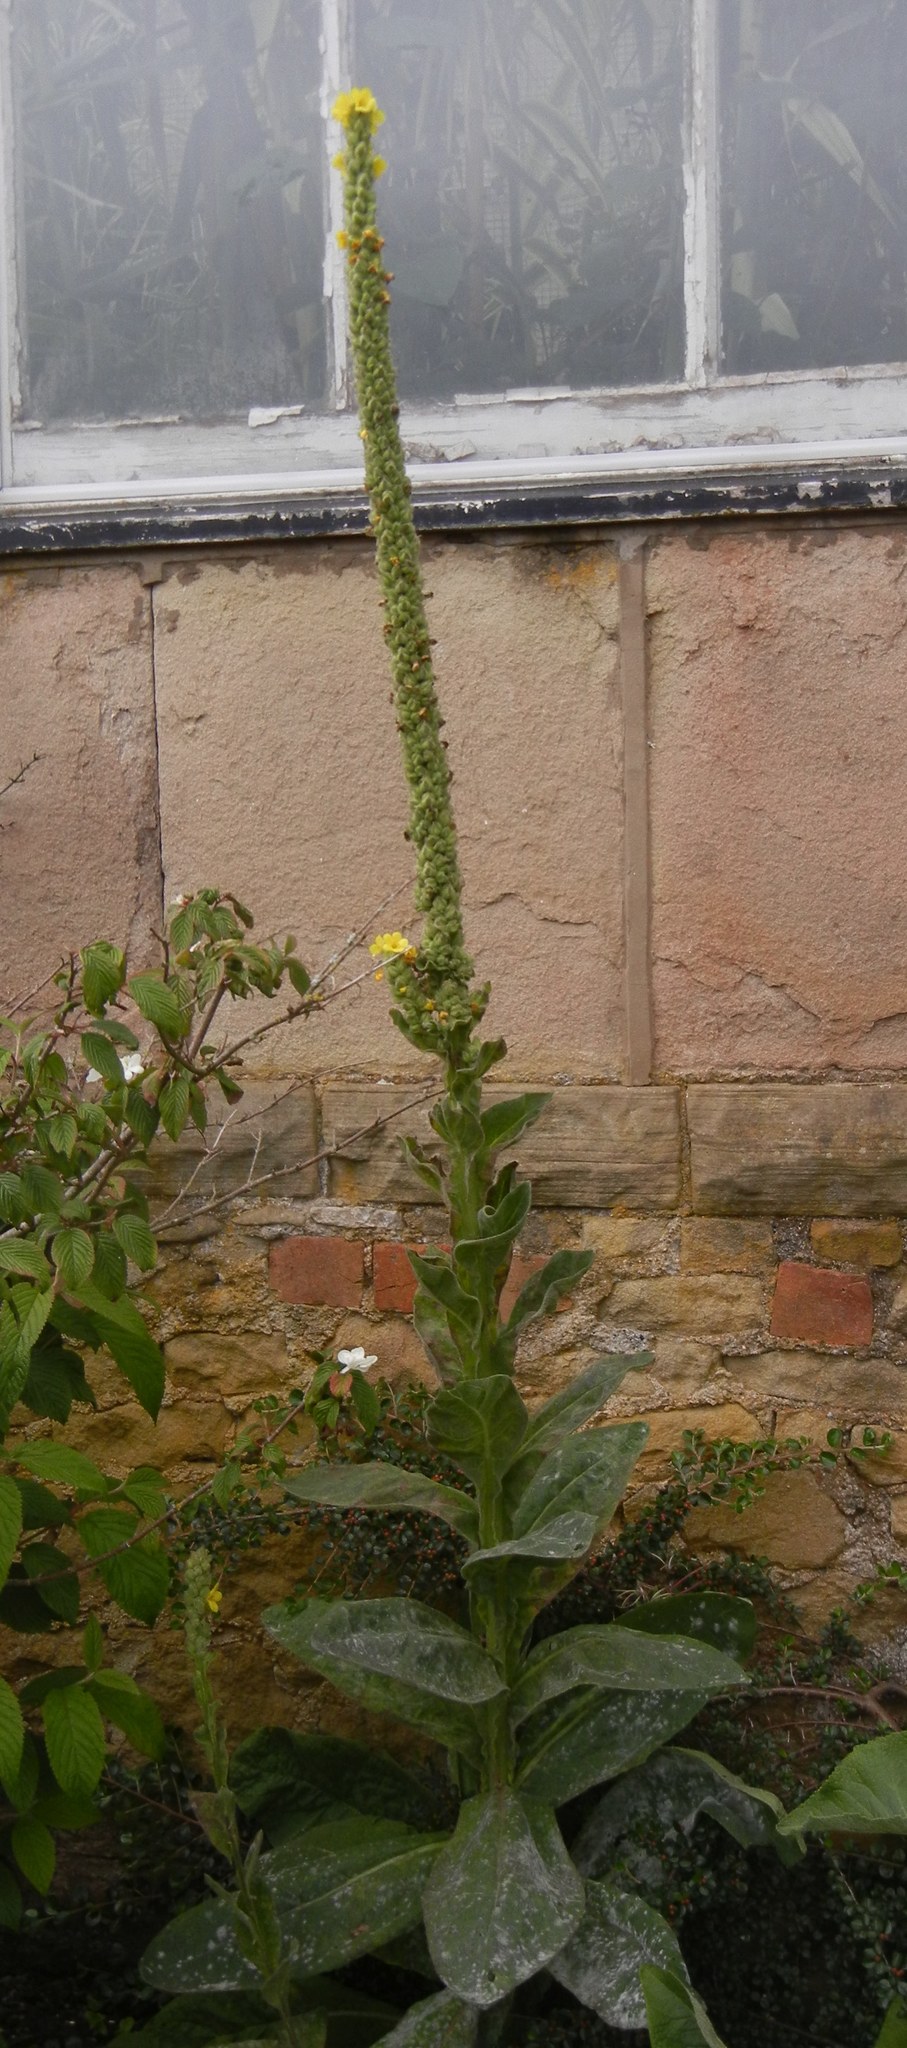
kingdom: Plantae
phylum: Tracheophyta
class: Magnoliopsida
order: Lamiales
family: Scrophulariaceae
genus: Verbascum
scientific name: Verbascum thapsus
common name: Common mullein
